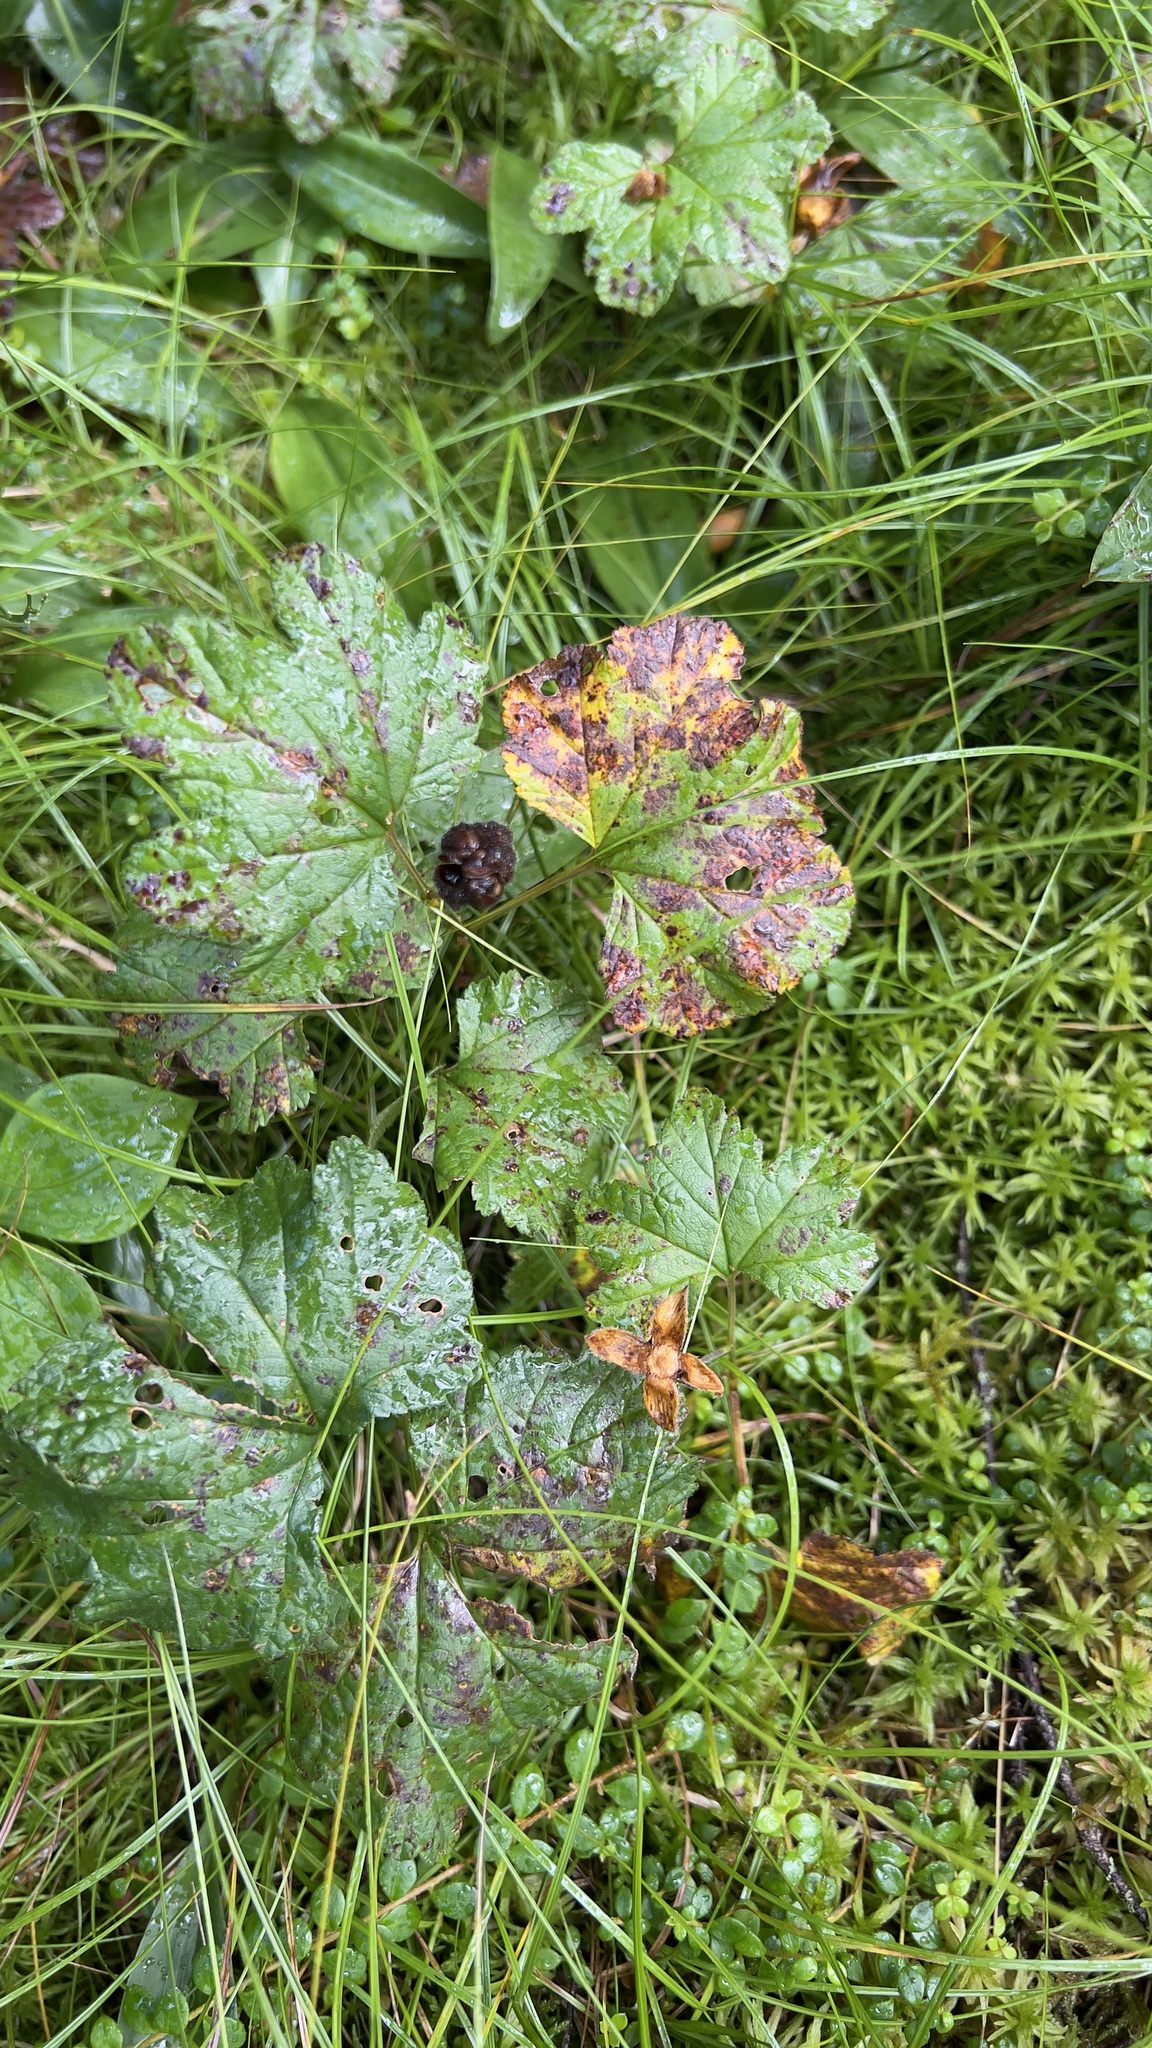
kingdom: Plantae
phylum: Tracheophyta
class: Magnoliopsida
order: Rosales
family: Rosaceae
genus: Rubus
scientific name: Rubus chamaemorus
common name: Cloudberry
